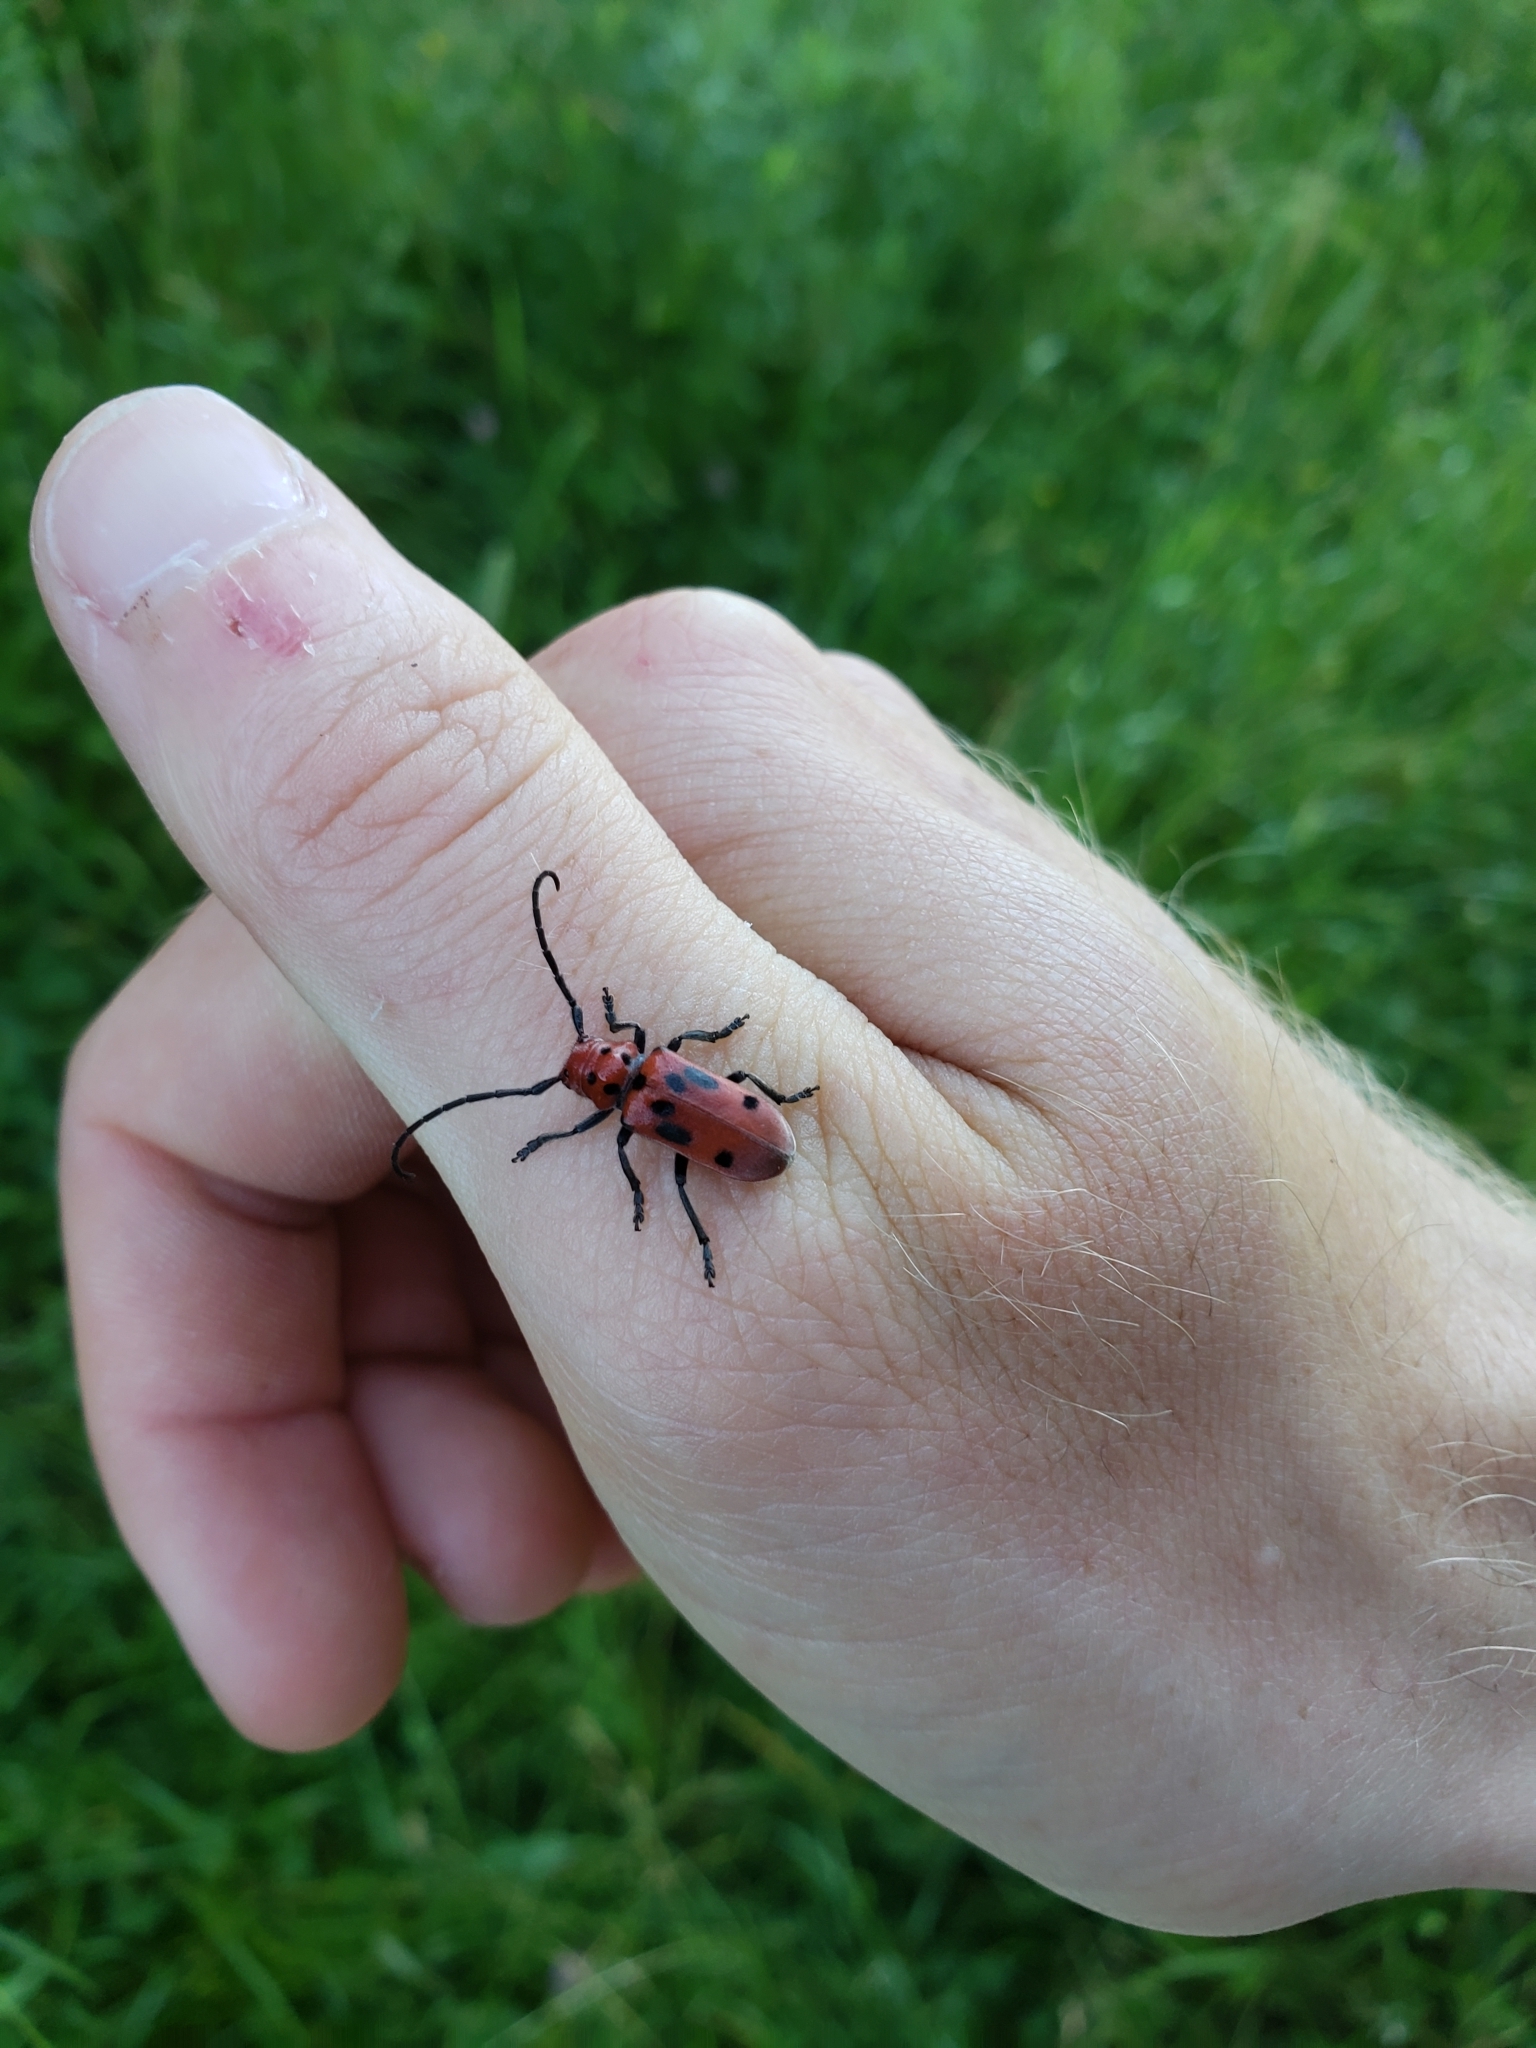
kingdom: Animalia
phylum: Arthropoda
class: Insecta
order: Coleoptera
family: Cerambycidae
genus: Tetraopes
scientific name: Tetraopes tetrophthalmus
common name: Red milkweed beetle
